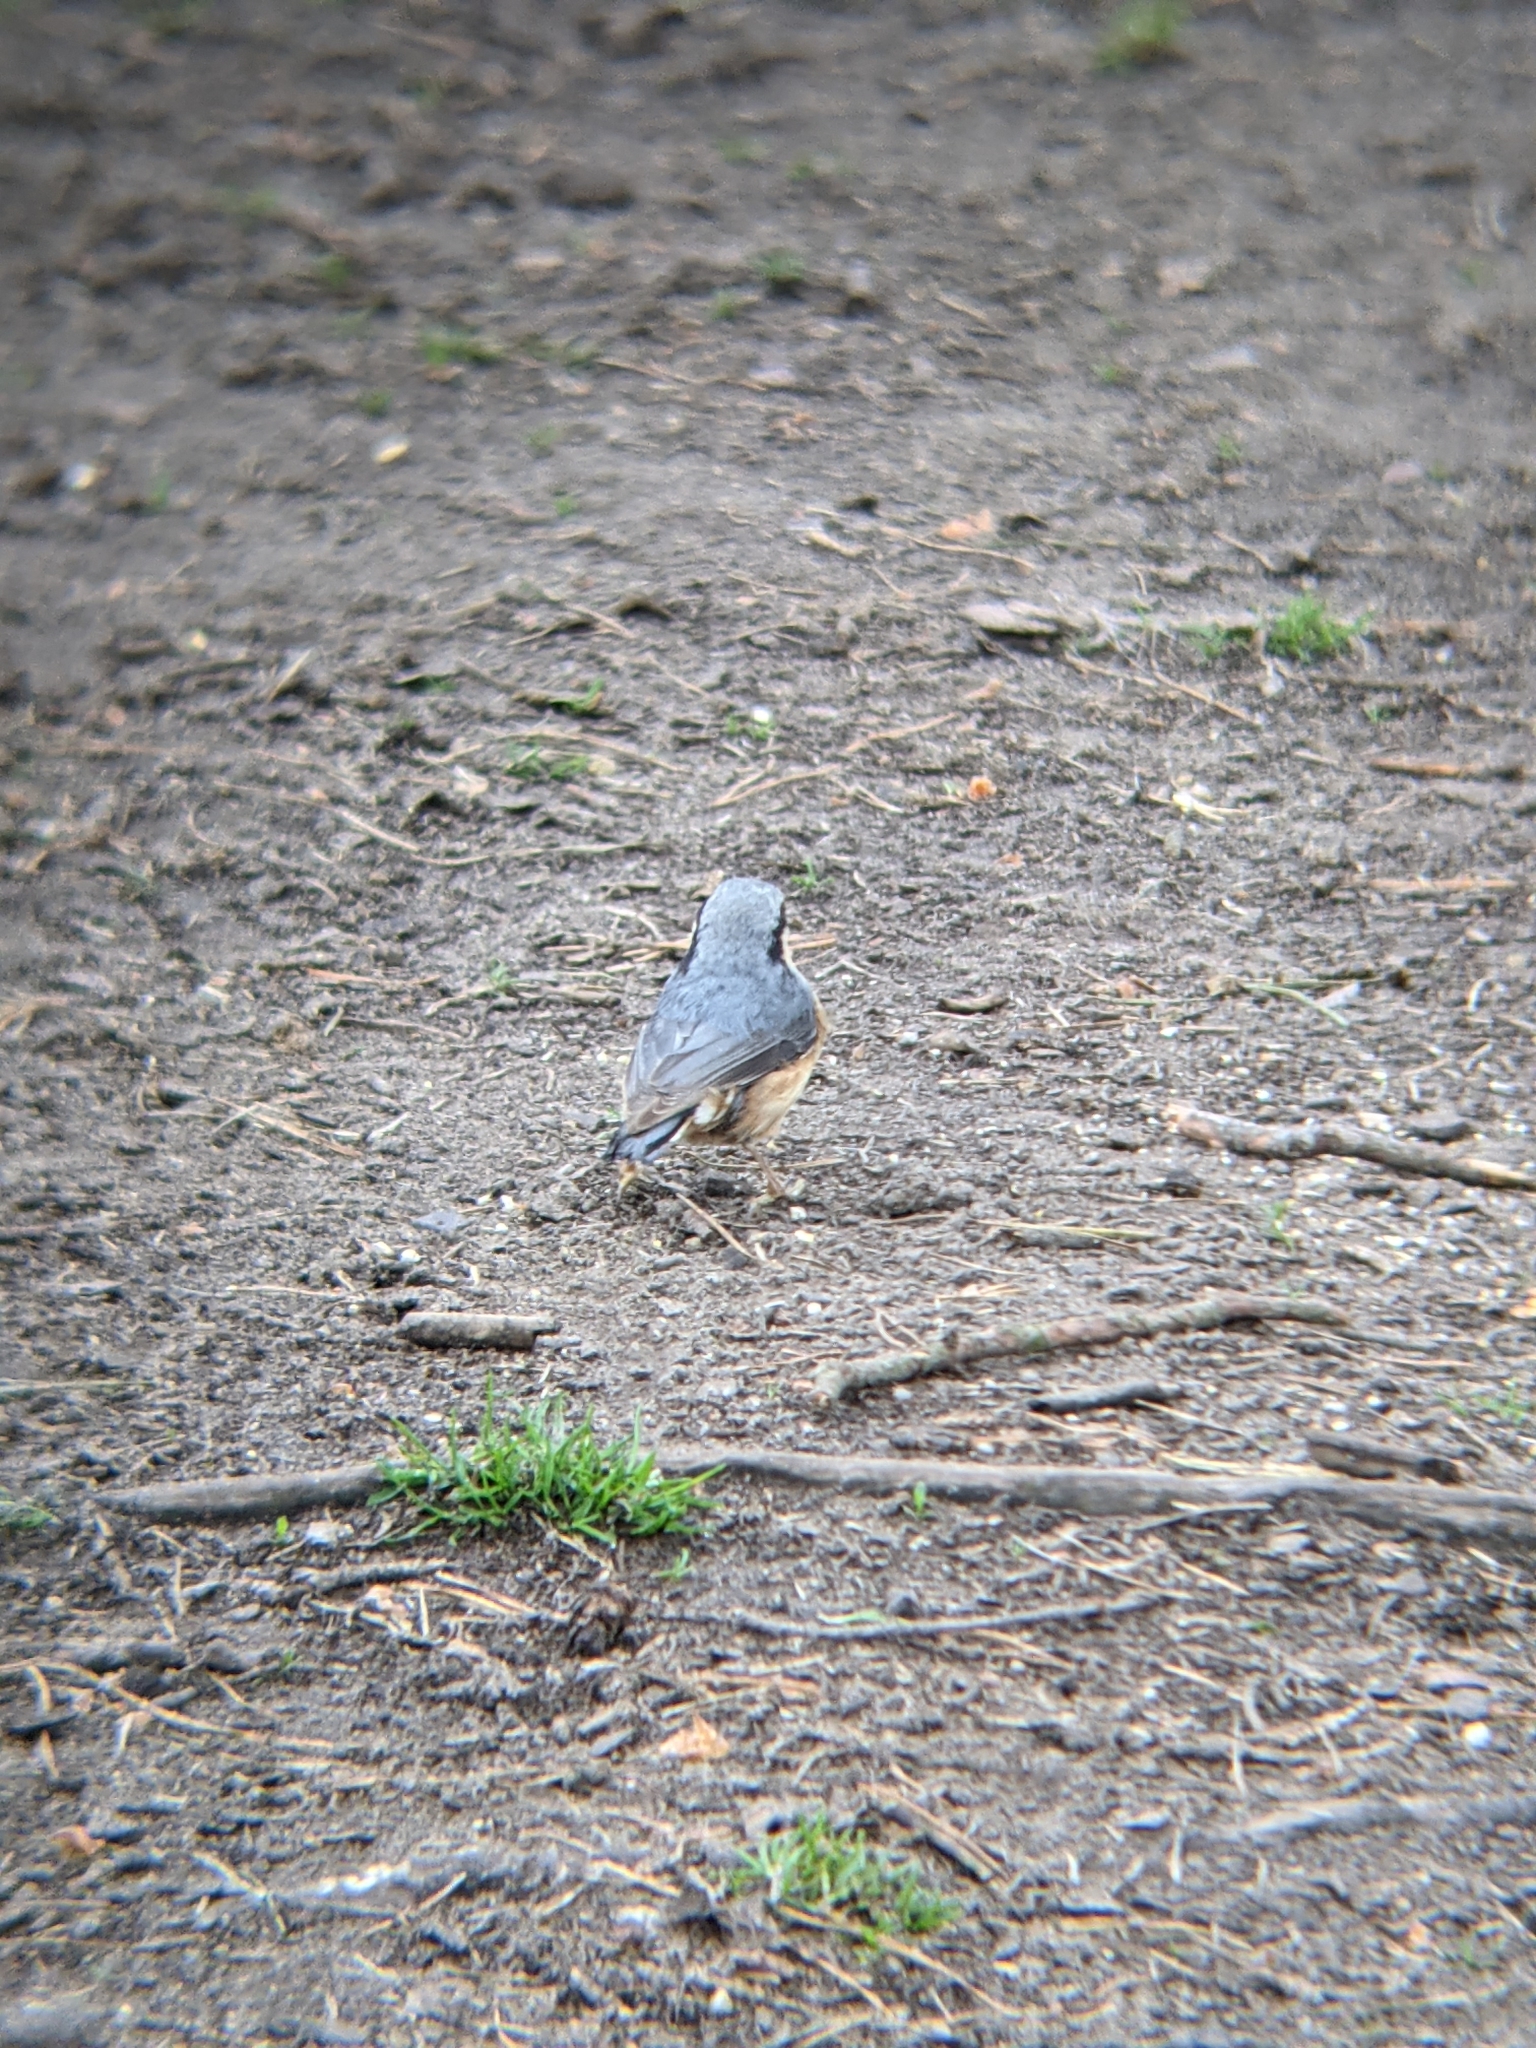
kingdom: Animalia
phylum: Chordata
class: Aves
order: Passeriformes
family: Sittidae
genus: Sitta
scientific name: Sitta europaea
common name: Eurasian nuthatch
